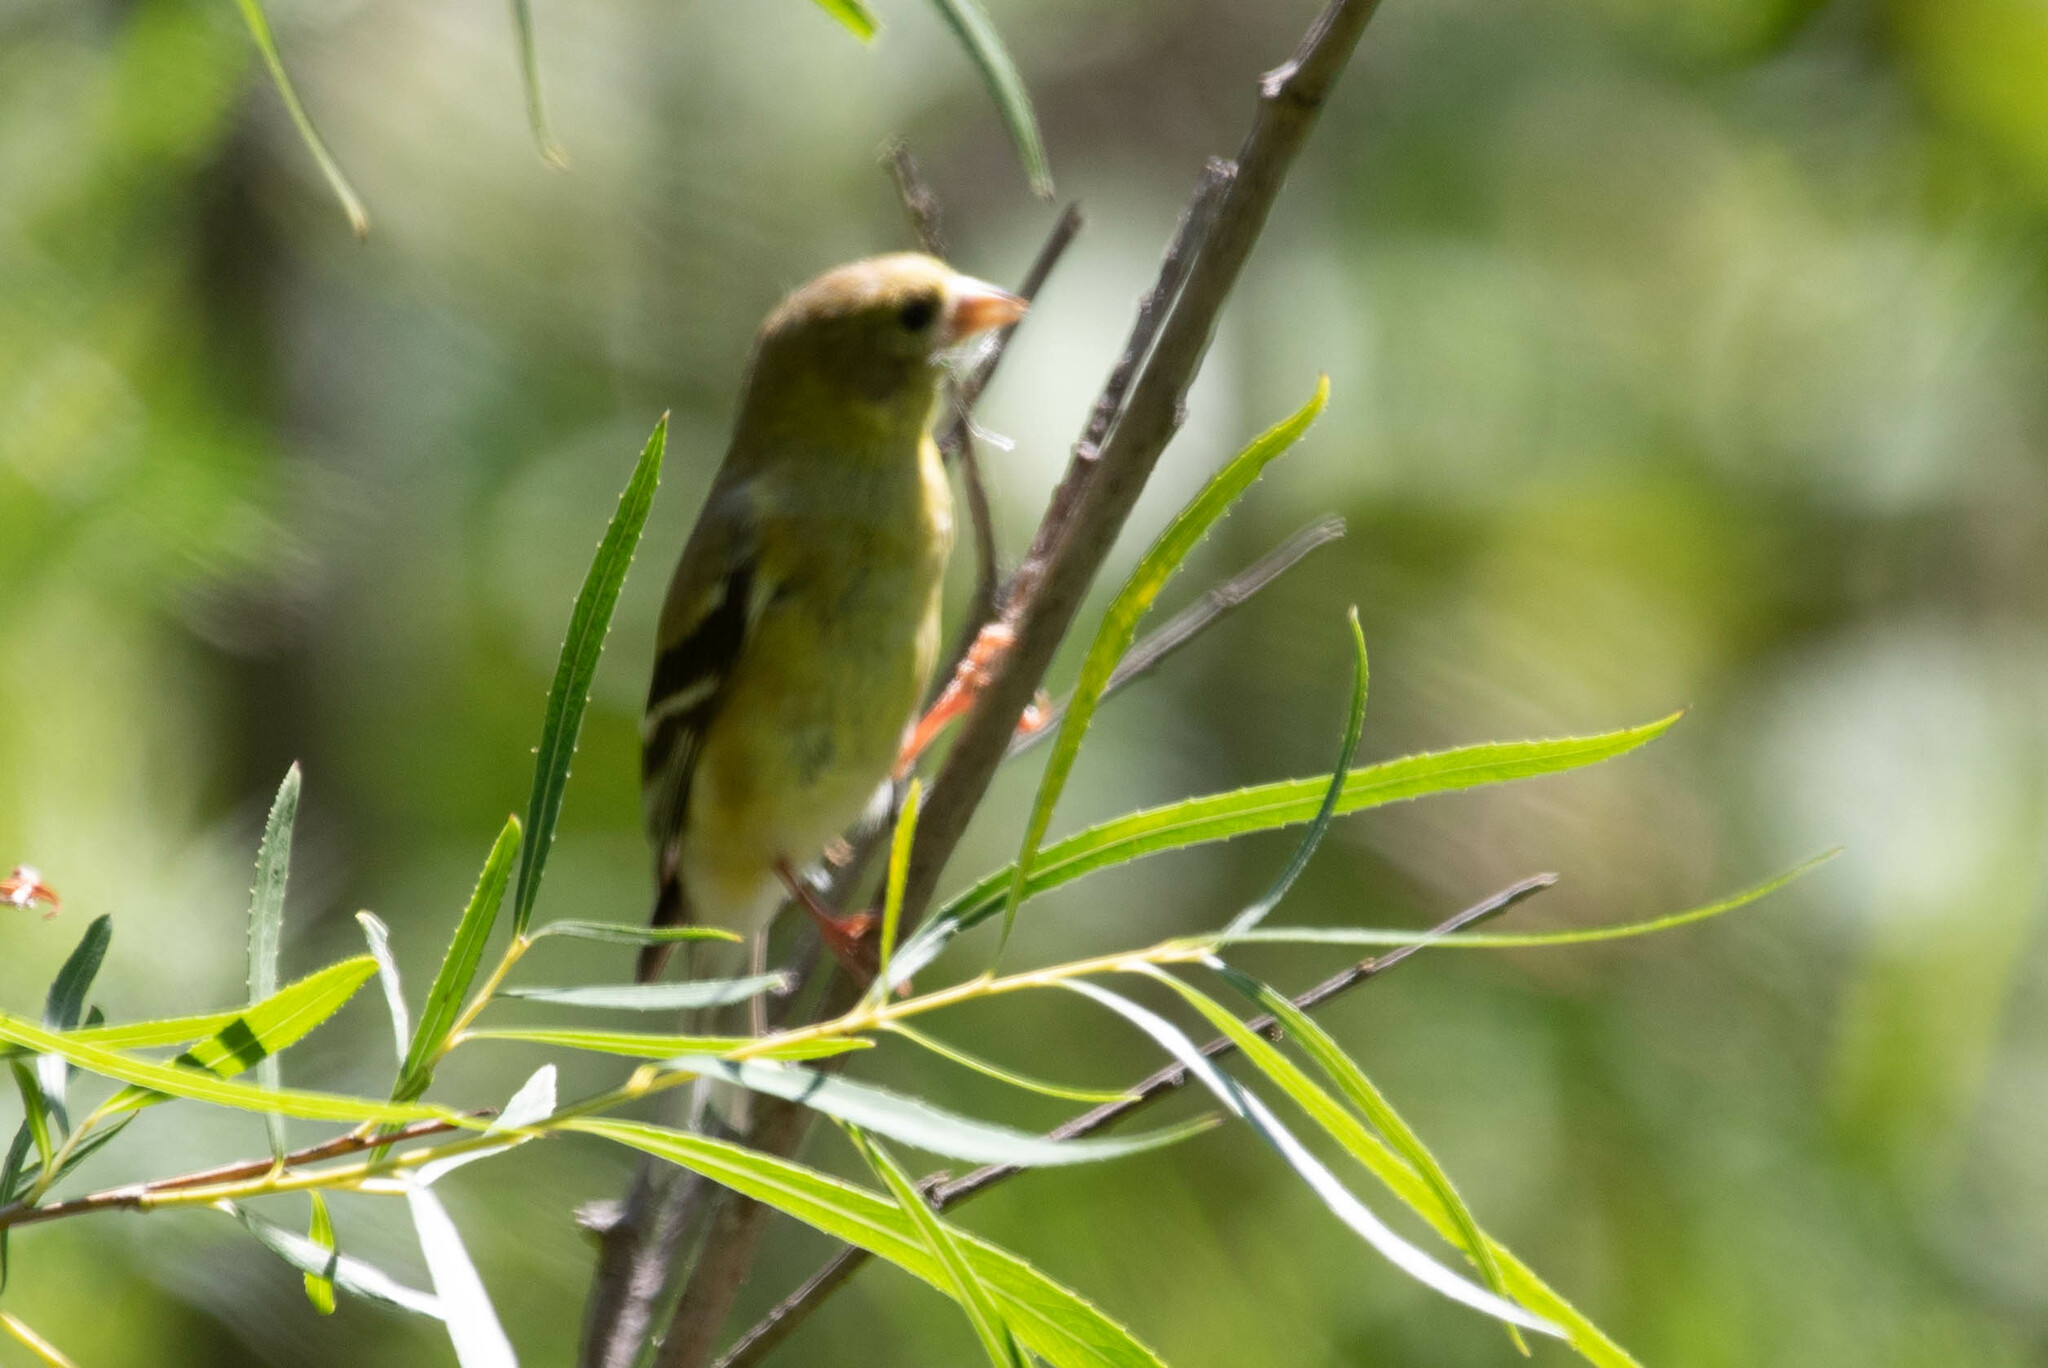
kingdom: Animalia
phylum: Chordata
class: Aves
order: Passeriformes
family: Fringillidae
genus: Spinus
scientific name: Spinus tristis
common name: American goldfinch
